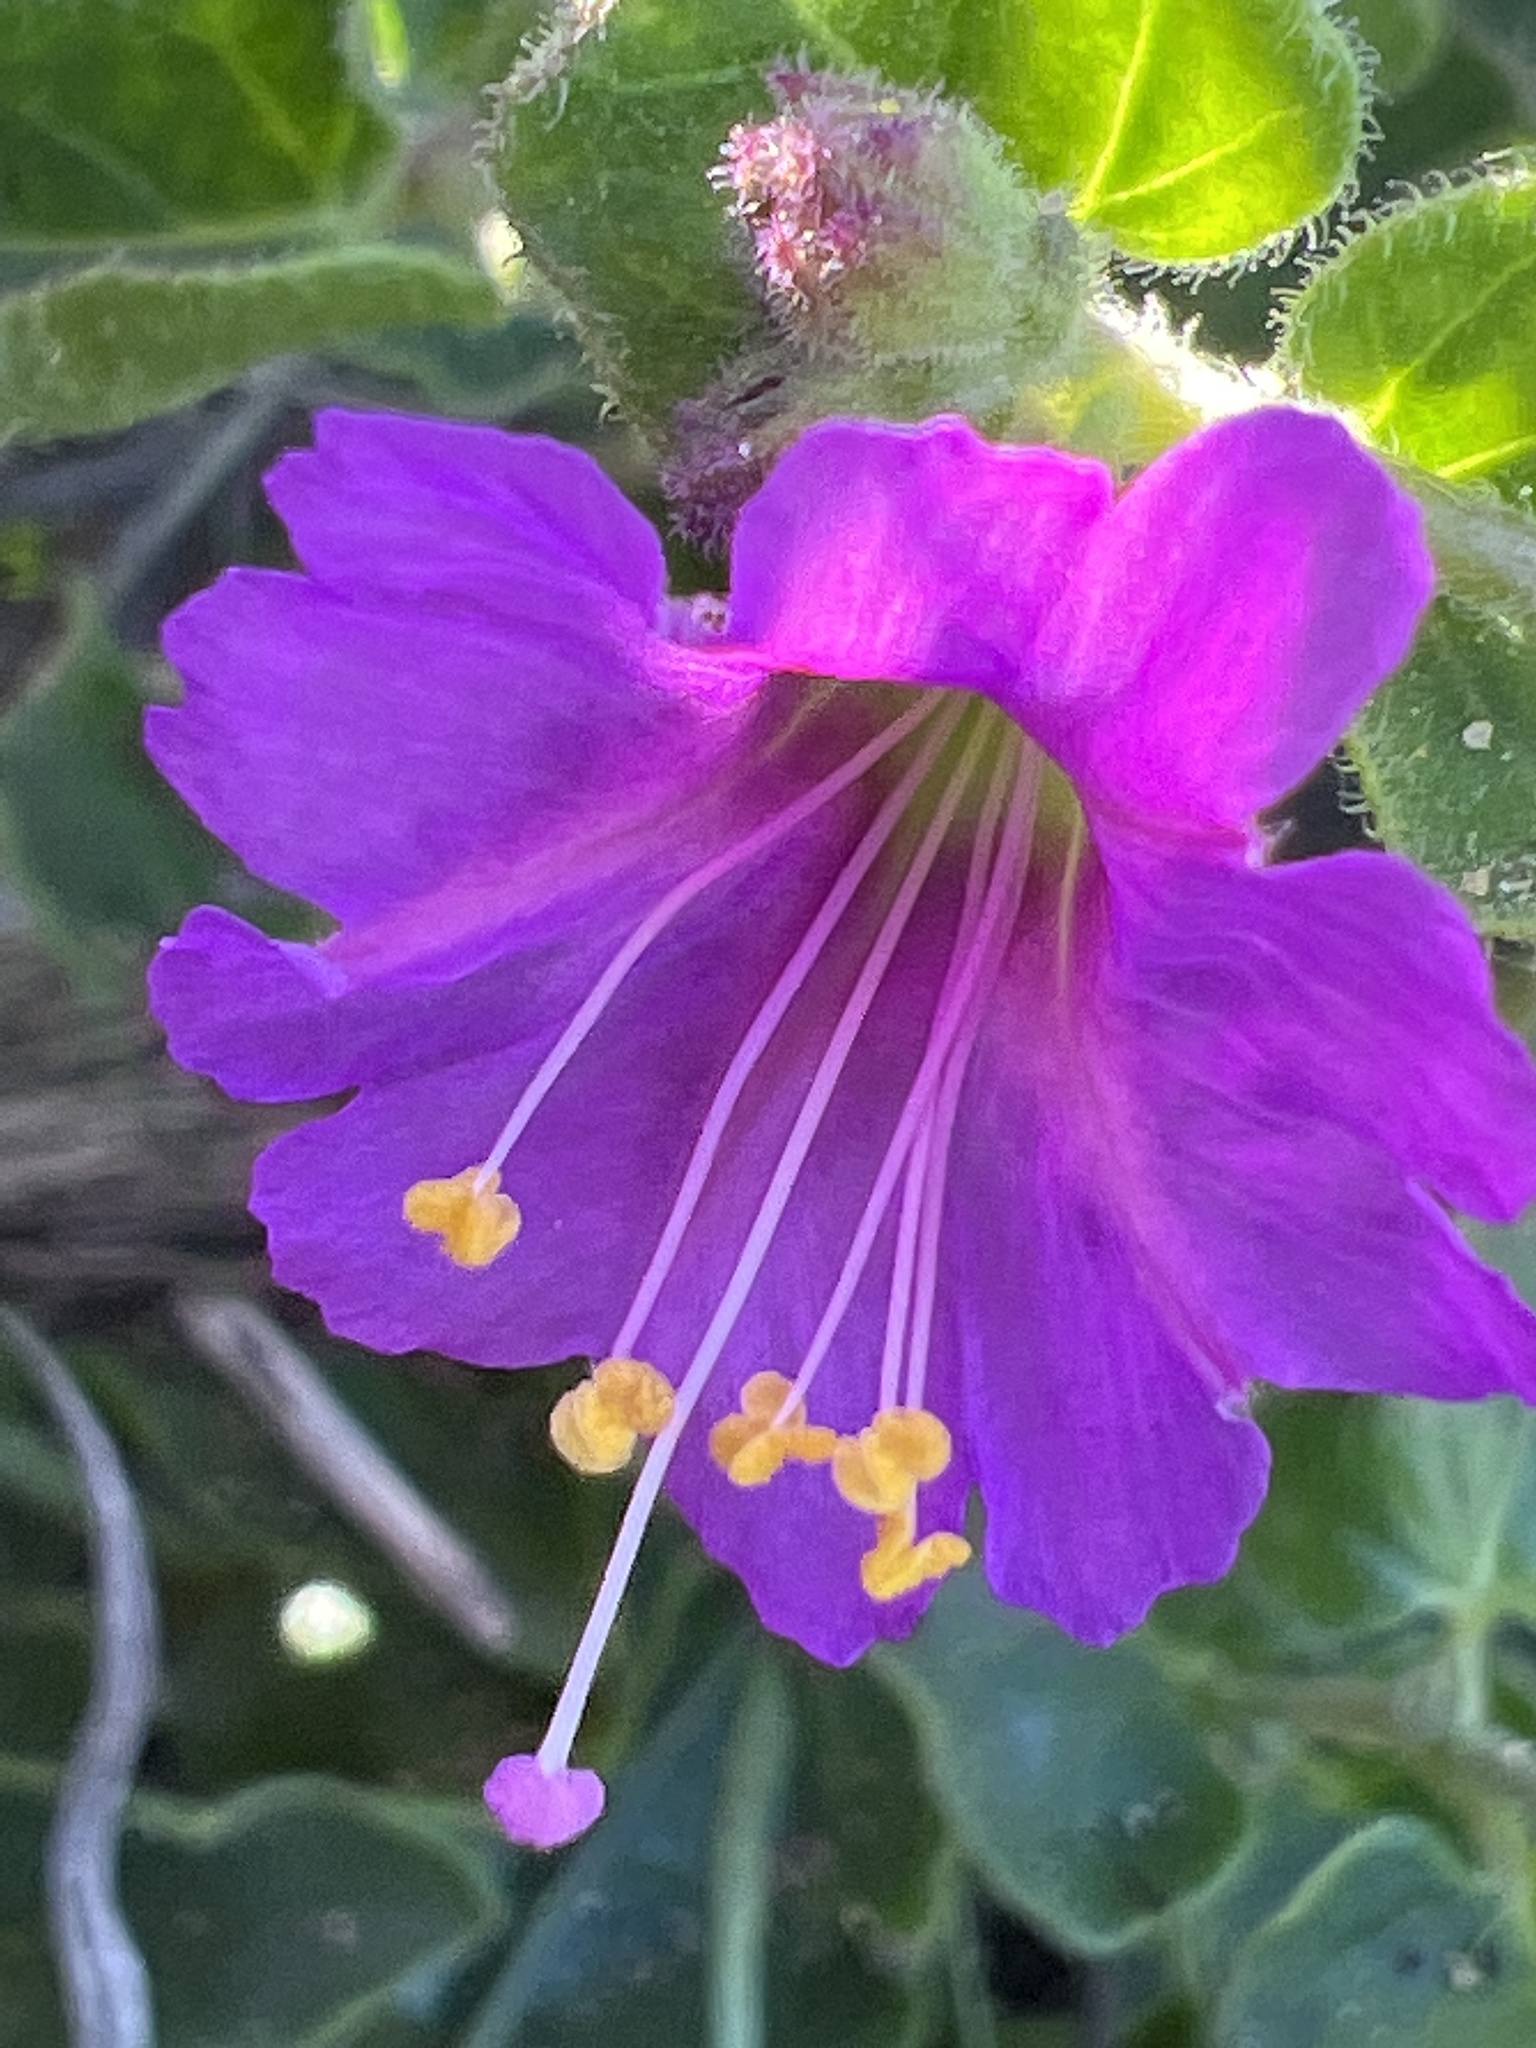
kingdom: Plantae
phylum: Tracheophyta
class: Magnoliopsida
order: Caryophyllales
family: Nyctaginaceae
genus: Mirabilis
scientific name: Mirabilis laevis
